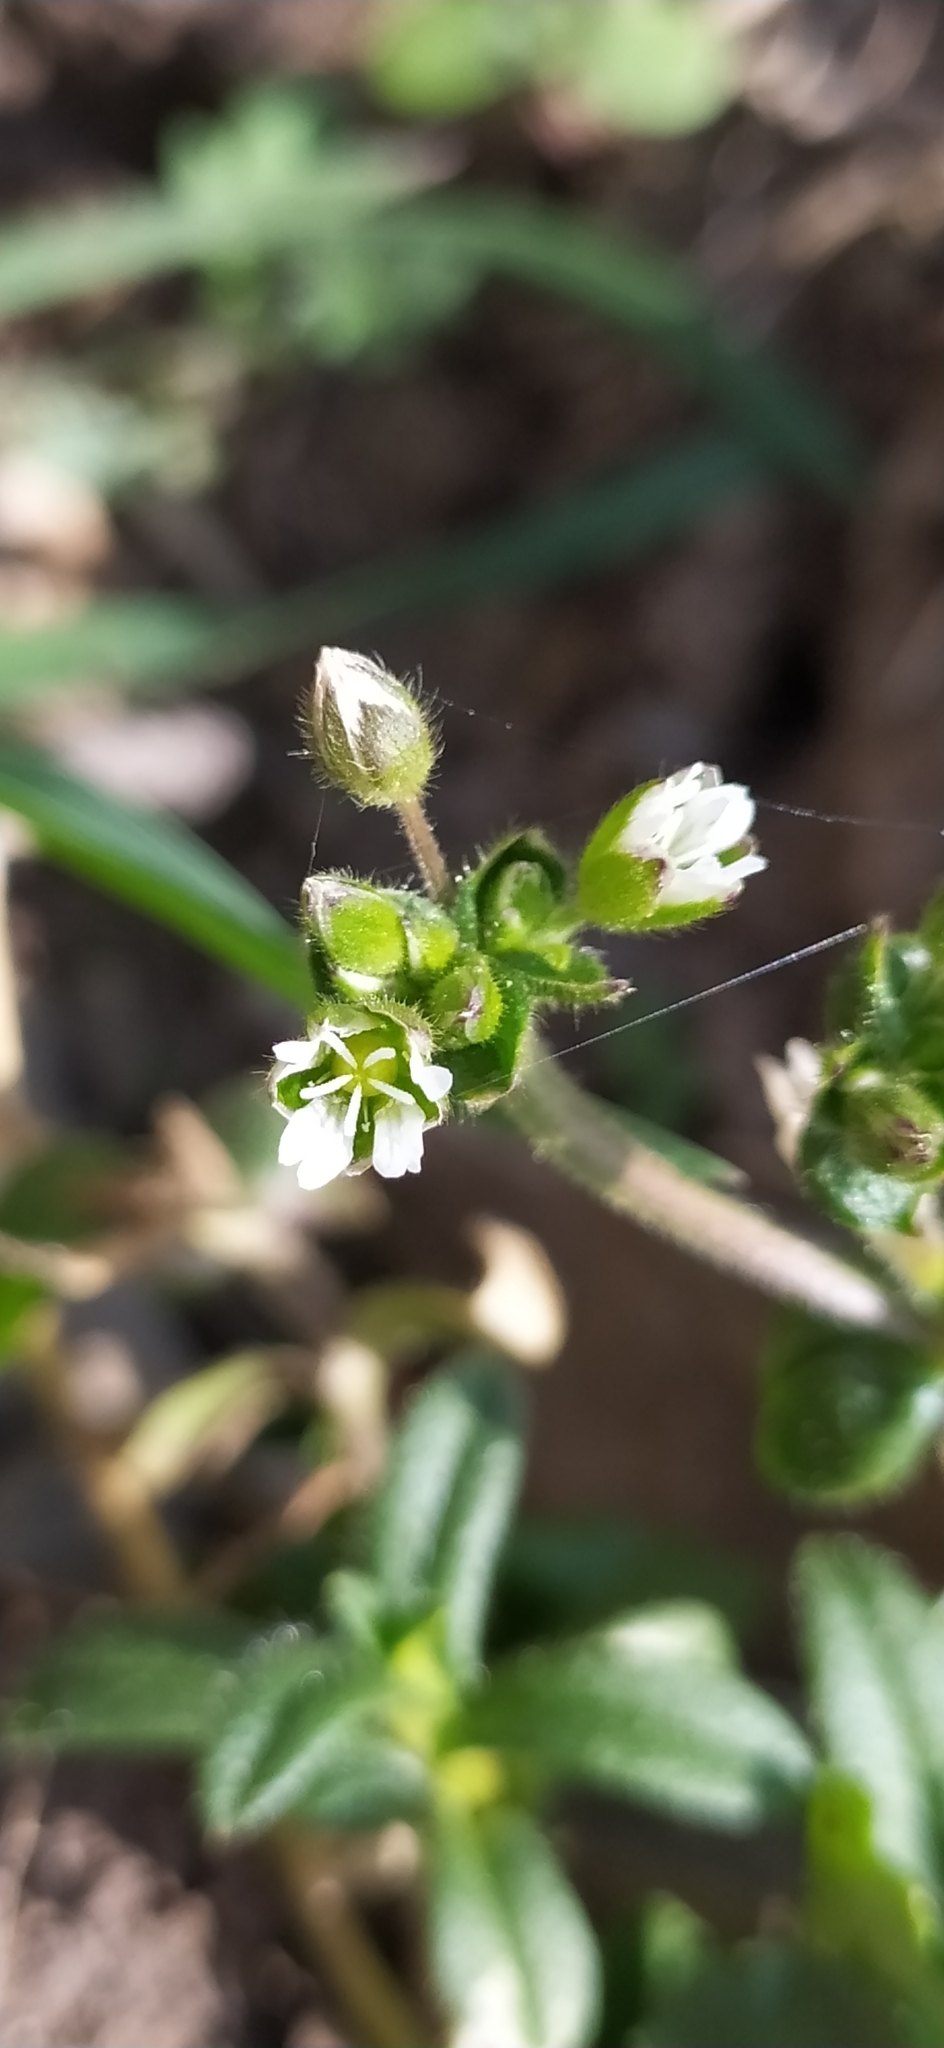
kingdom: Plantae
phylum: Tracheophyta
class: Magnoliopsida
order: Caryophyllales
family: Caryophyllaceae
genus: Cerastium
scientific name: Cerastium holosteoides
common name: Big chickweed
